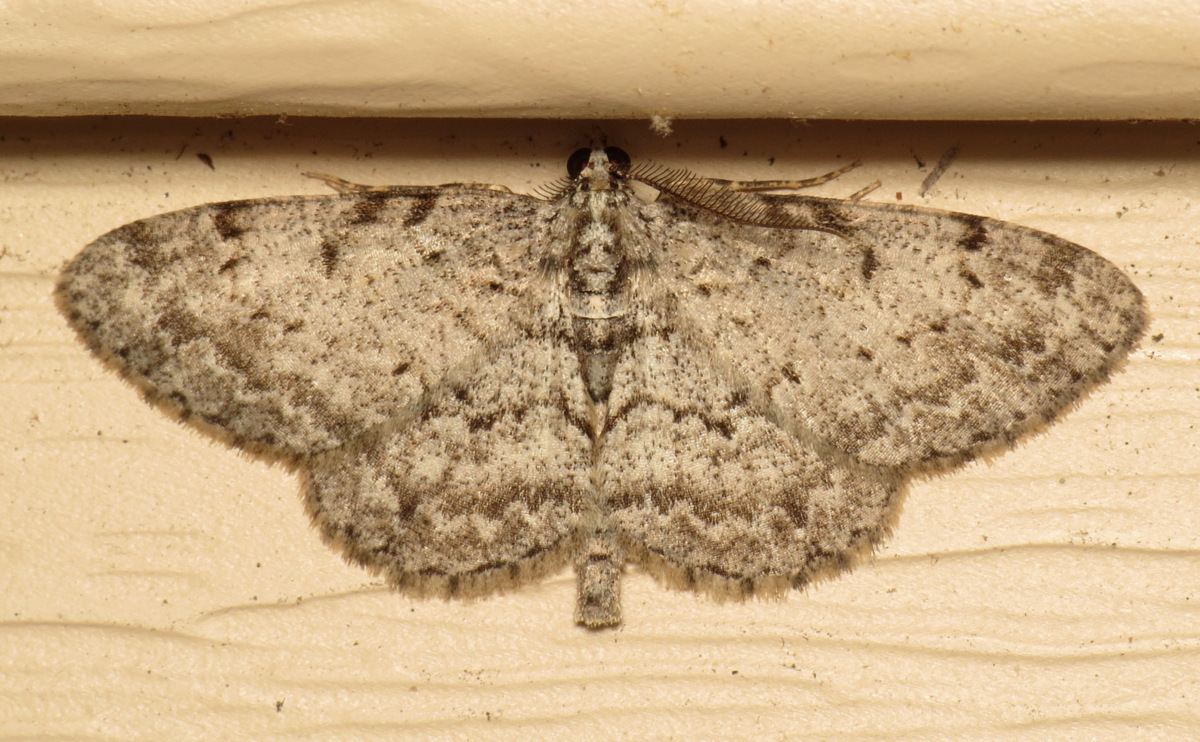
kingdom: Animalia
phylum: Arthropoda
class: Insecta
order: Lepidoptera
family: Geometridae
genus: Protoboarmia
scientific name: Protoboarmia porcelaria
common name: Porcelain gray
